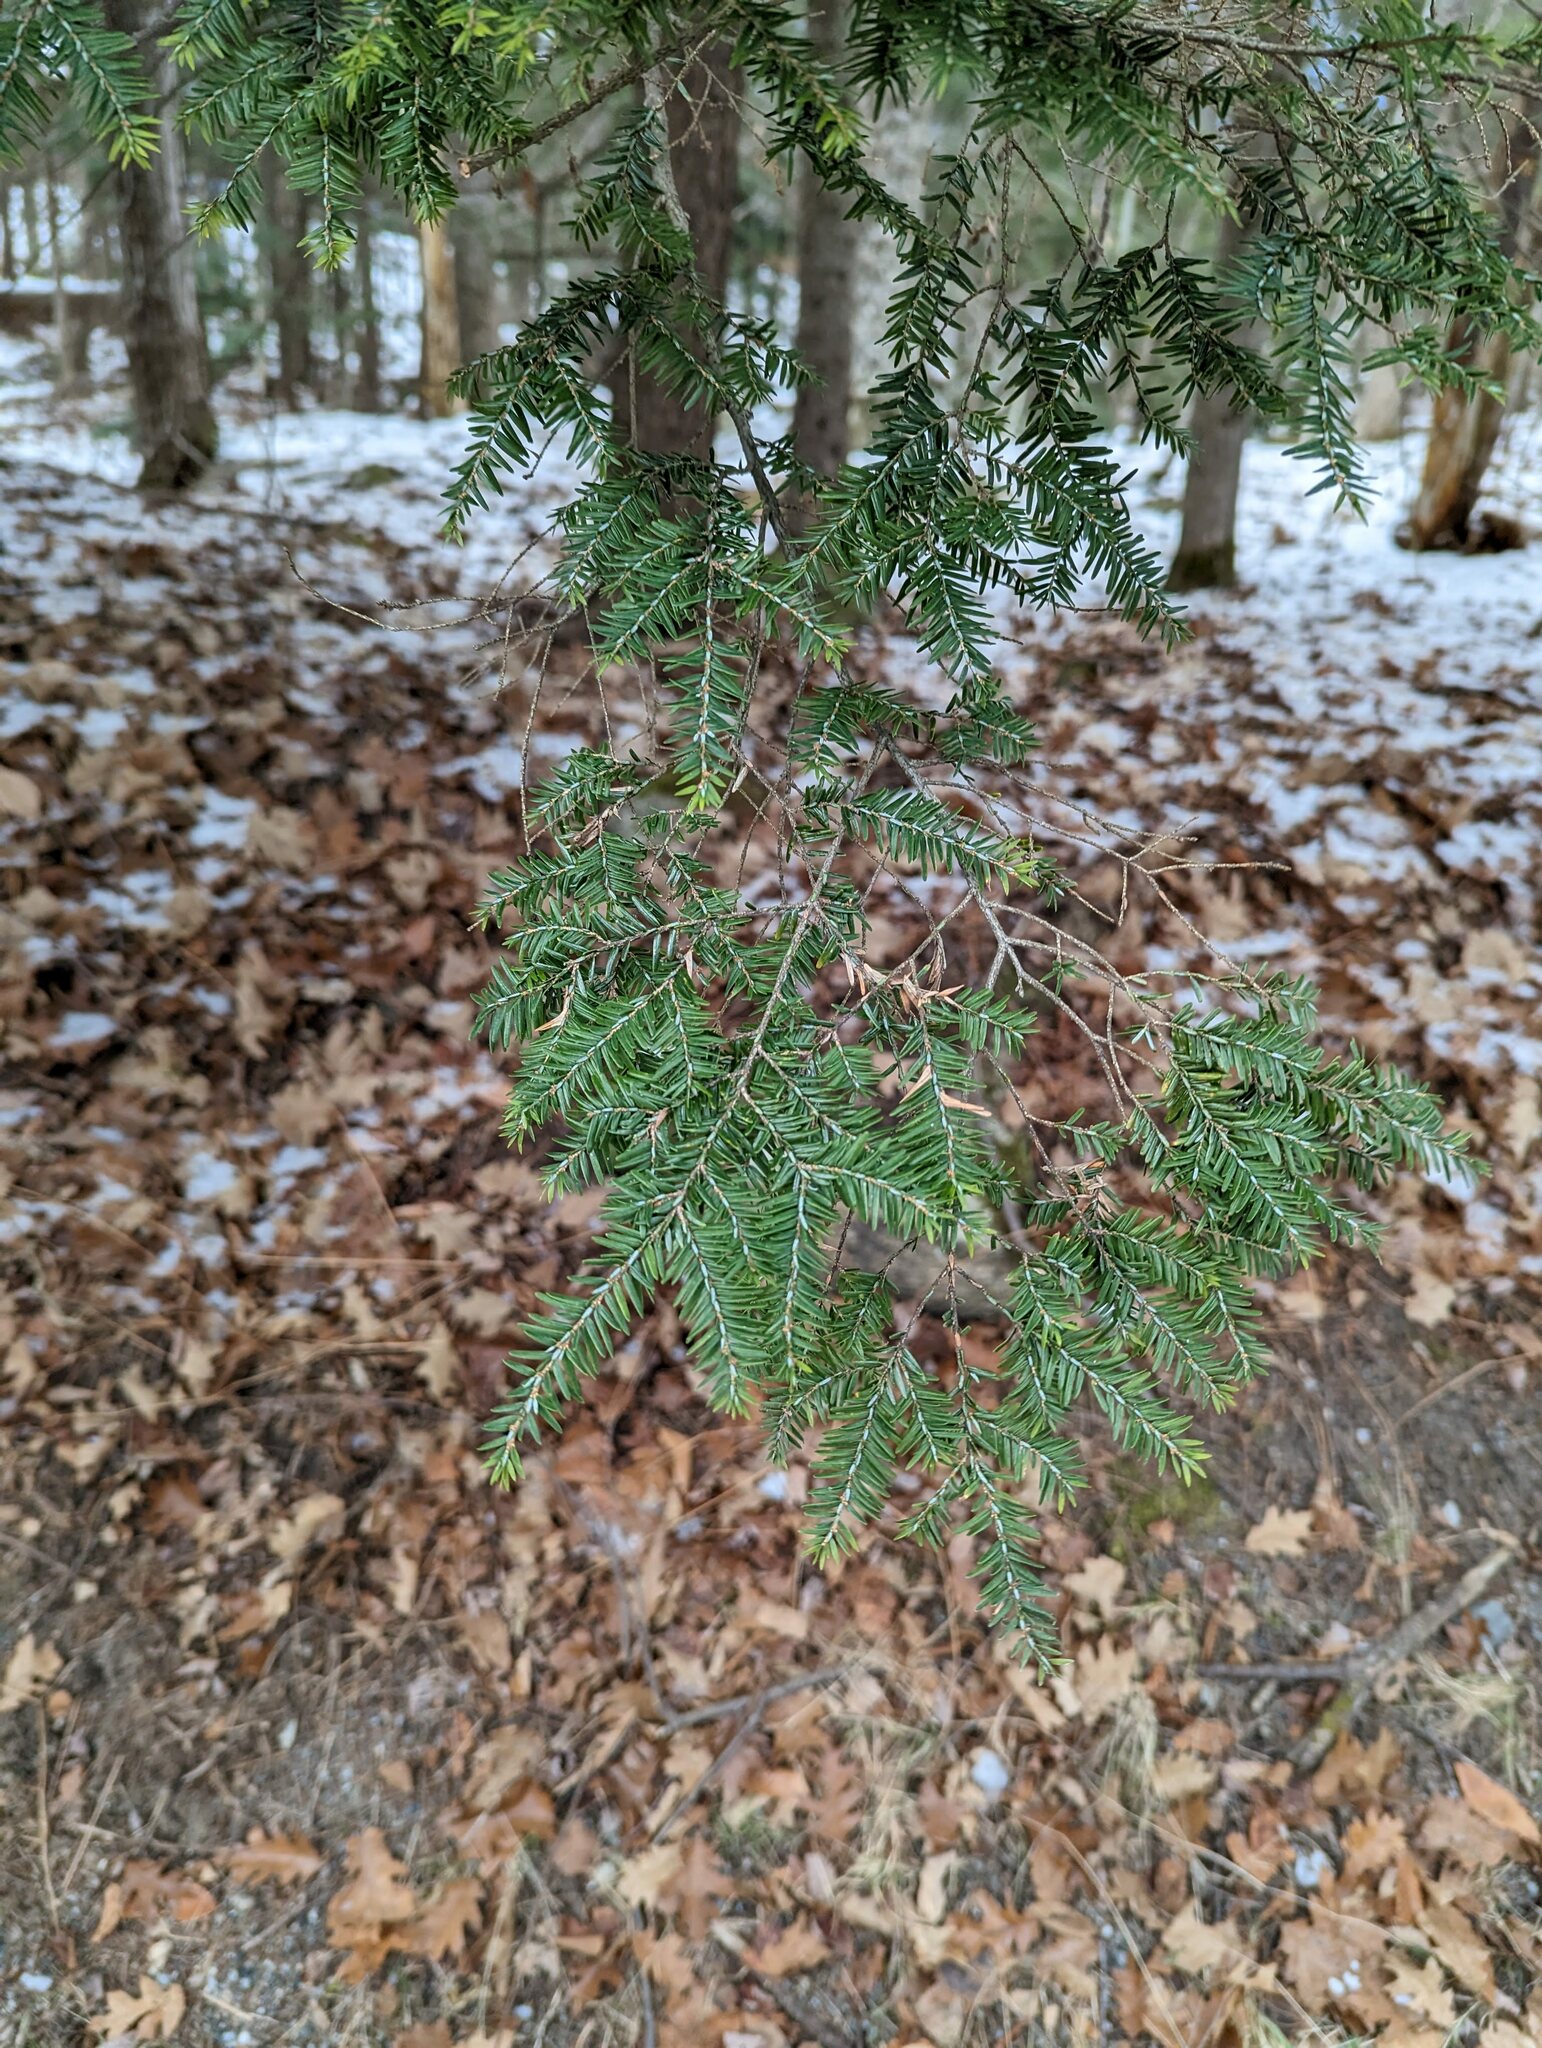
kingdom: Plantae
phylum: Tracheophyta
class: Pinopsida
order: Pinales
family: Pinaceae
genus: Tsuga
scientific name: Tsuga canadensis
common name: Eastern hemlock
